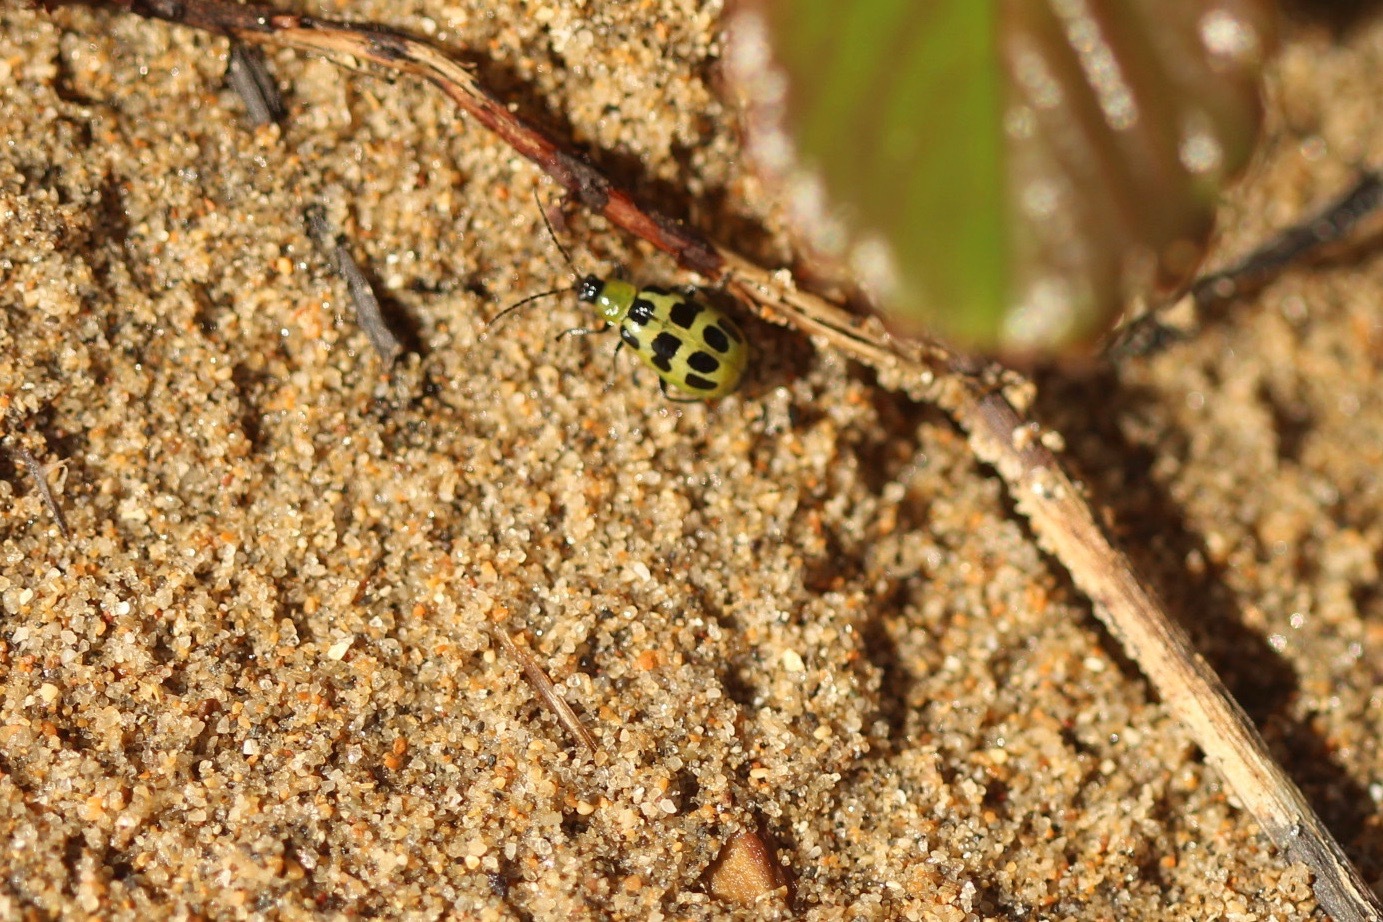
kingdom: Animalia
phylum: Arthropoda
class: Insecta
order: Coleoptera
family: Chrysomelidae
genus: Diabrotica
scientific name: Diabrotica undecimpunctata
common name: Spotted cucumber beetle
